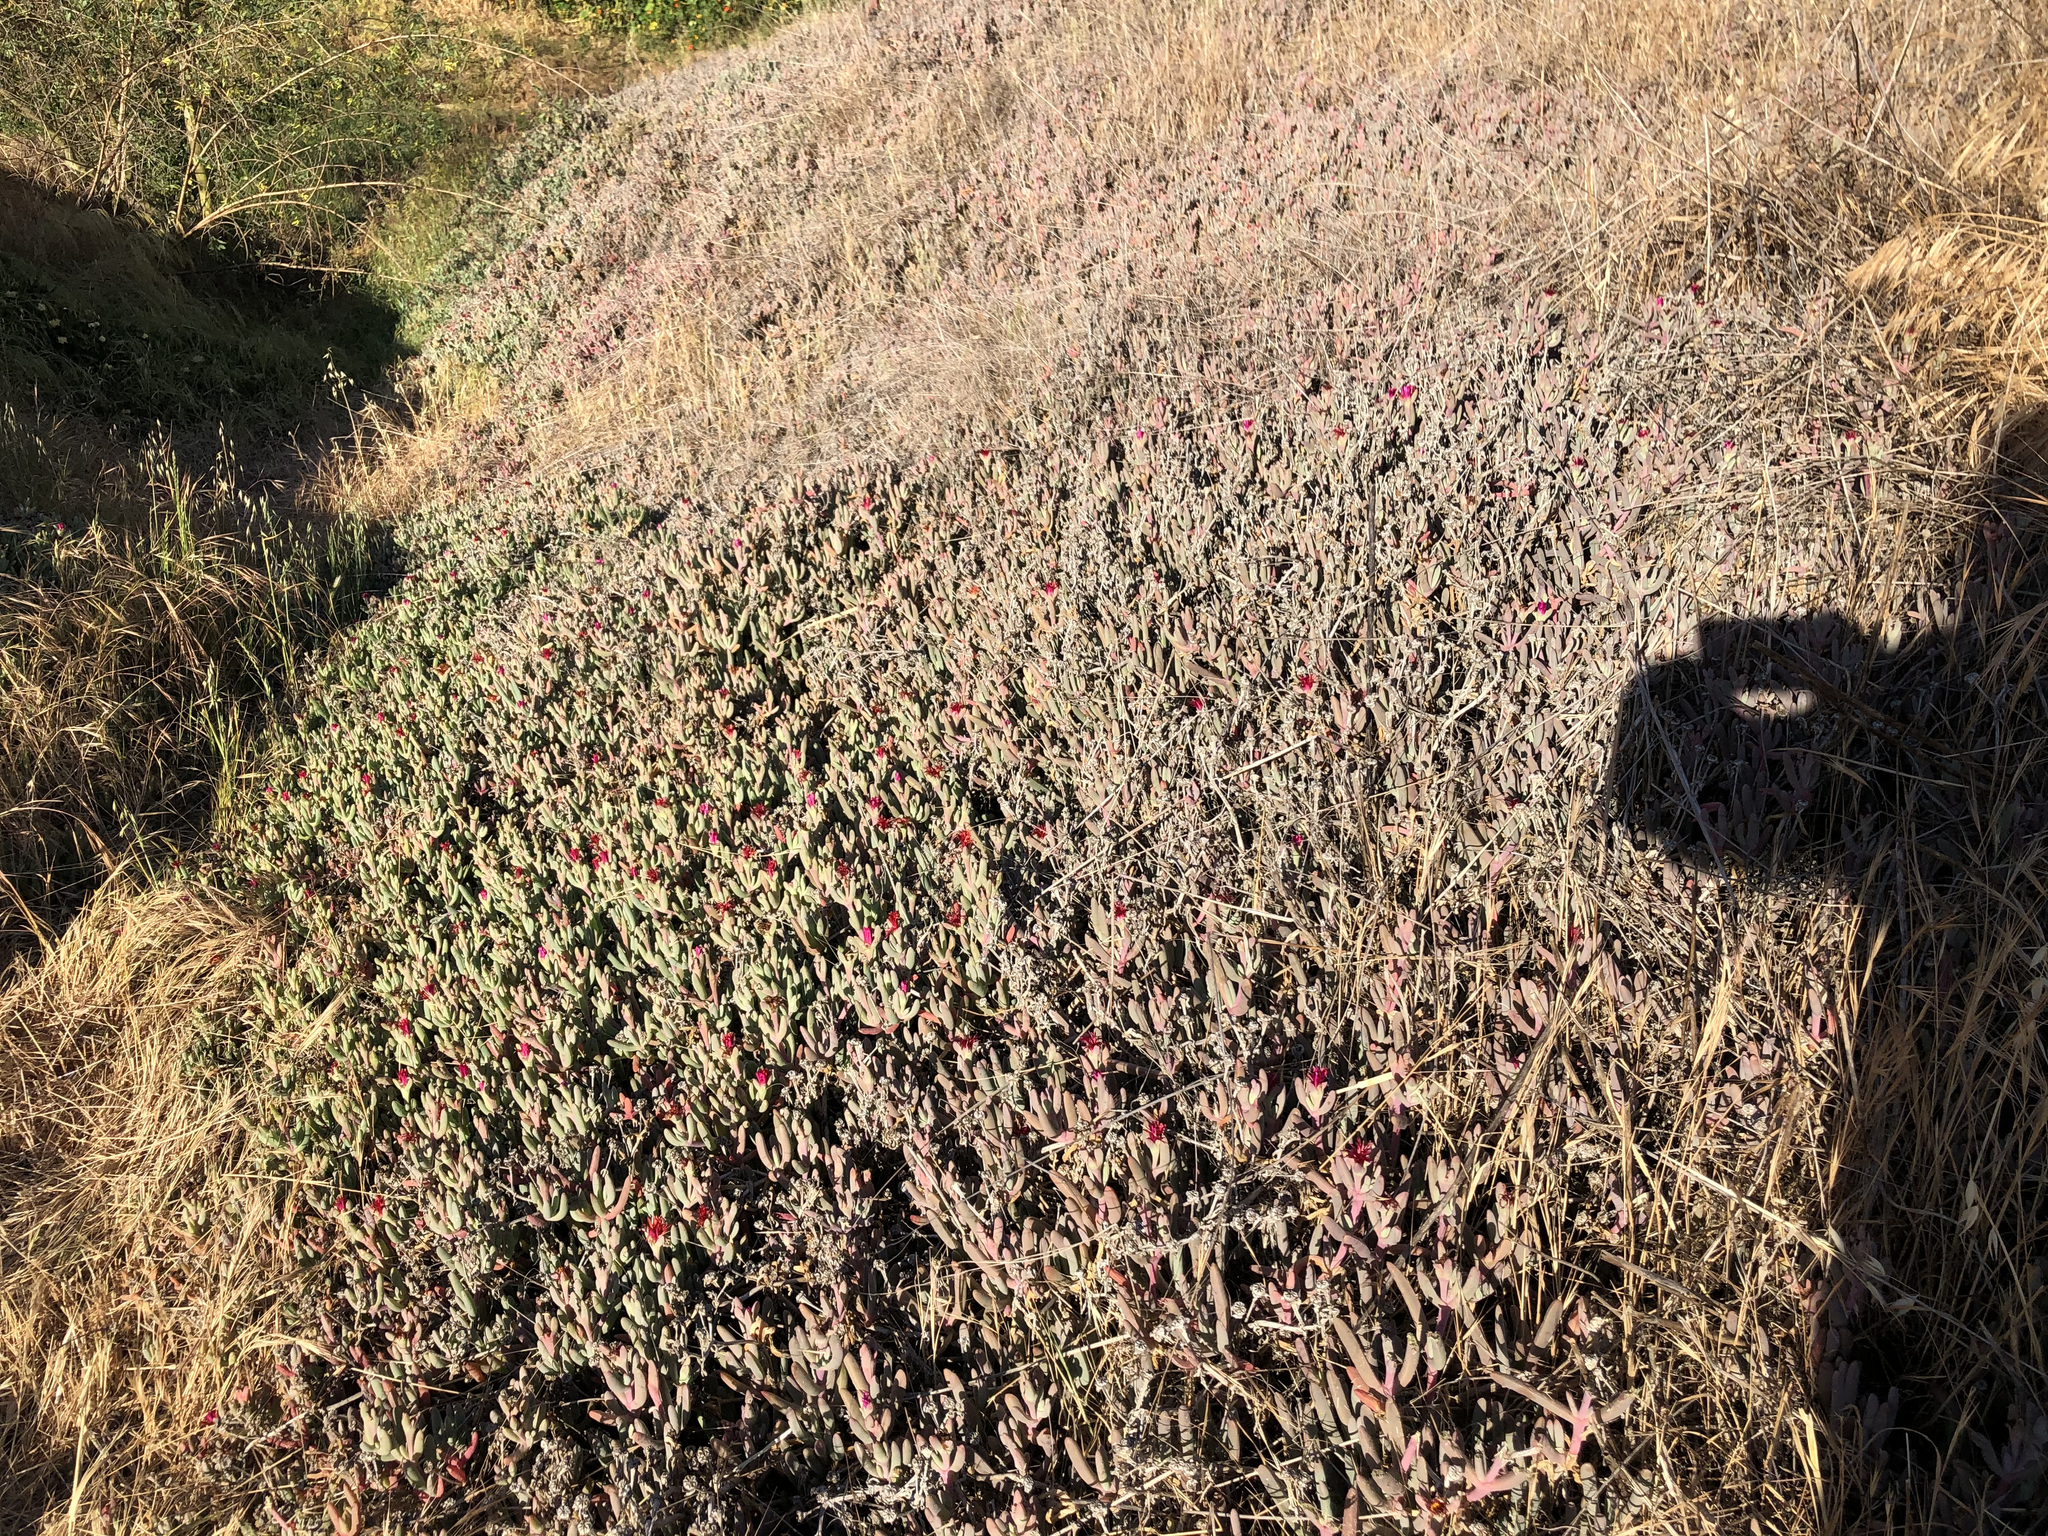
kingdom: Plantae
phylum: Tracheophyta
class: Magnoliopsida
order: Caryophyllales
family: Aizoaceae
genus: Malephora
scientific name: Malephora crocea
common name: Coppery mesemb
